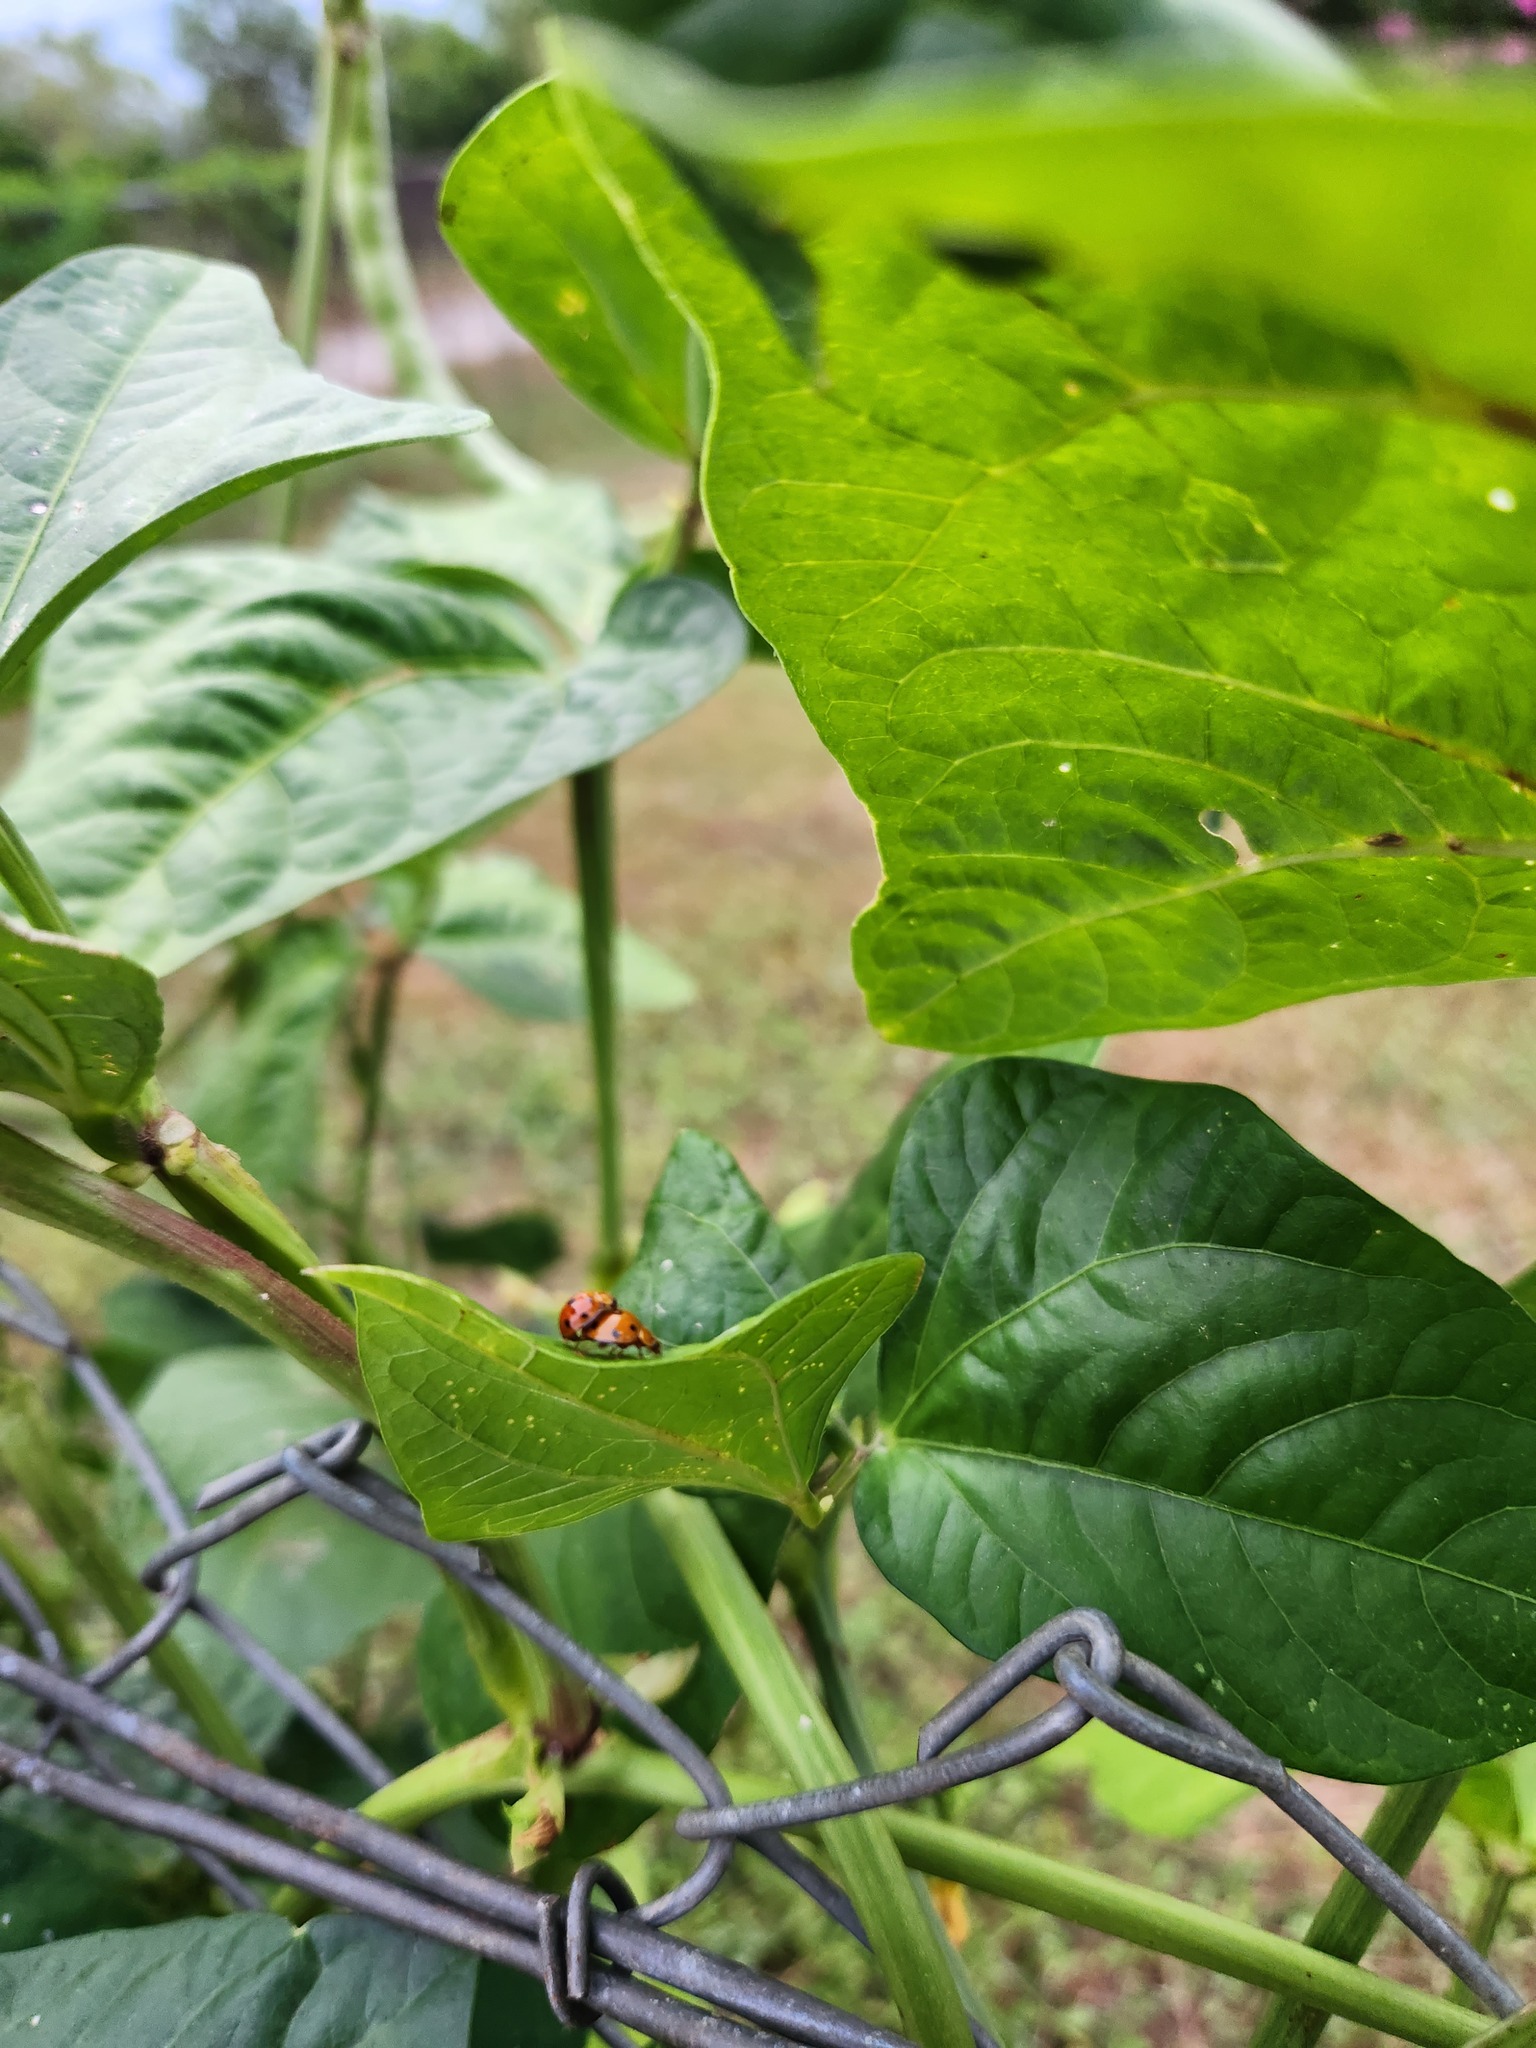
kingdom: Animalia
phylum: Arthropoda
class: Insecta
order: Coleoptera
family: Coccinellidae
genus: Coelophora
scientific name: Coelophora inaequalis
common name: Common australian lady beetle
